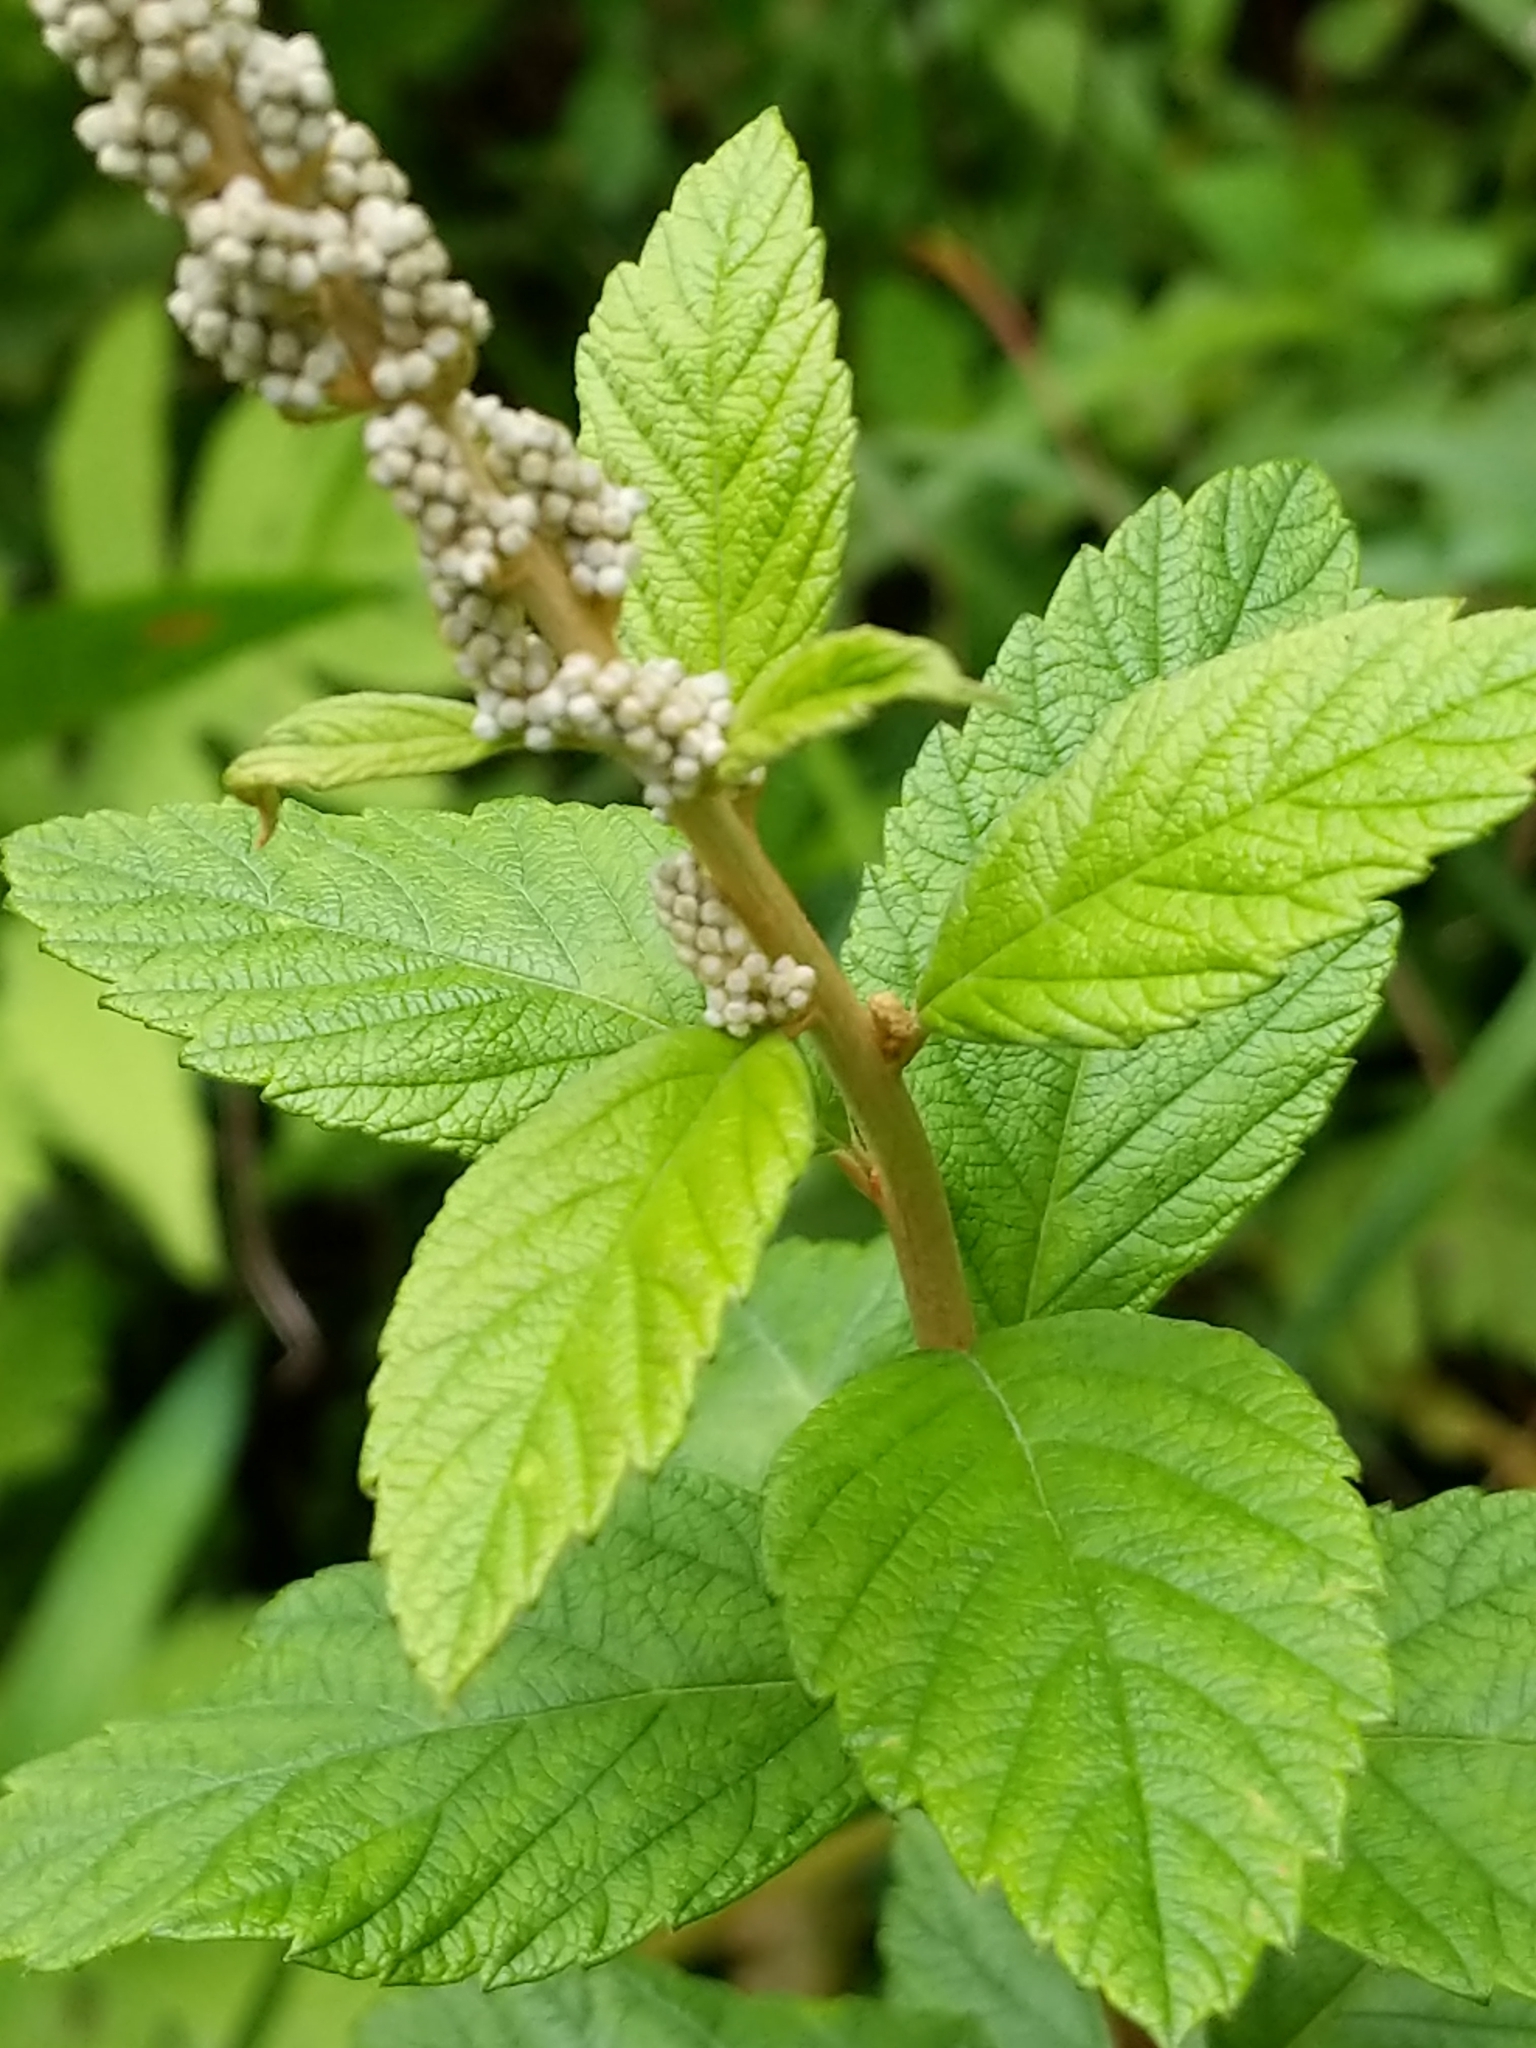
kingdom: Plantae
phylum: Tracheophyta
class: Magnoliopsida
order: Rosales
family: Rosaceae
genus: Spiraea
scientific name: Spiraea tomentosa
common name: Hardhack
